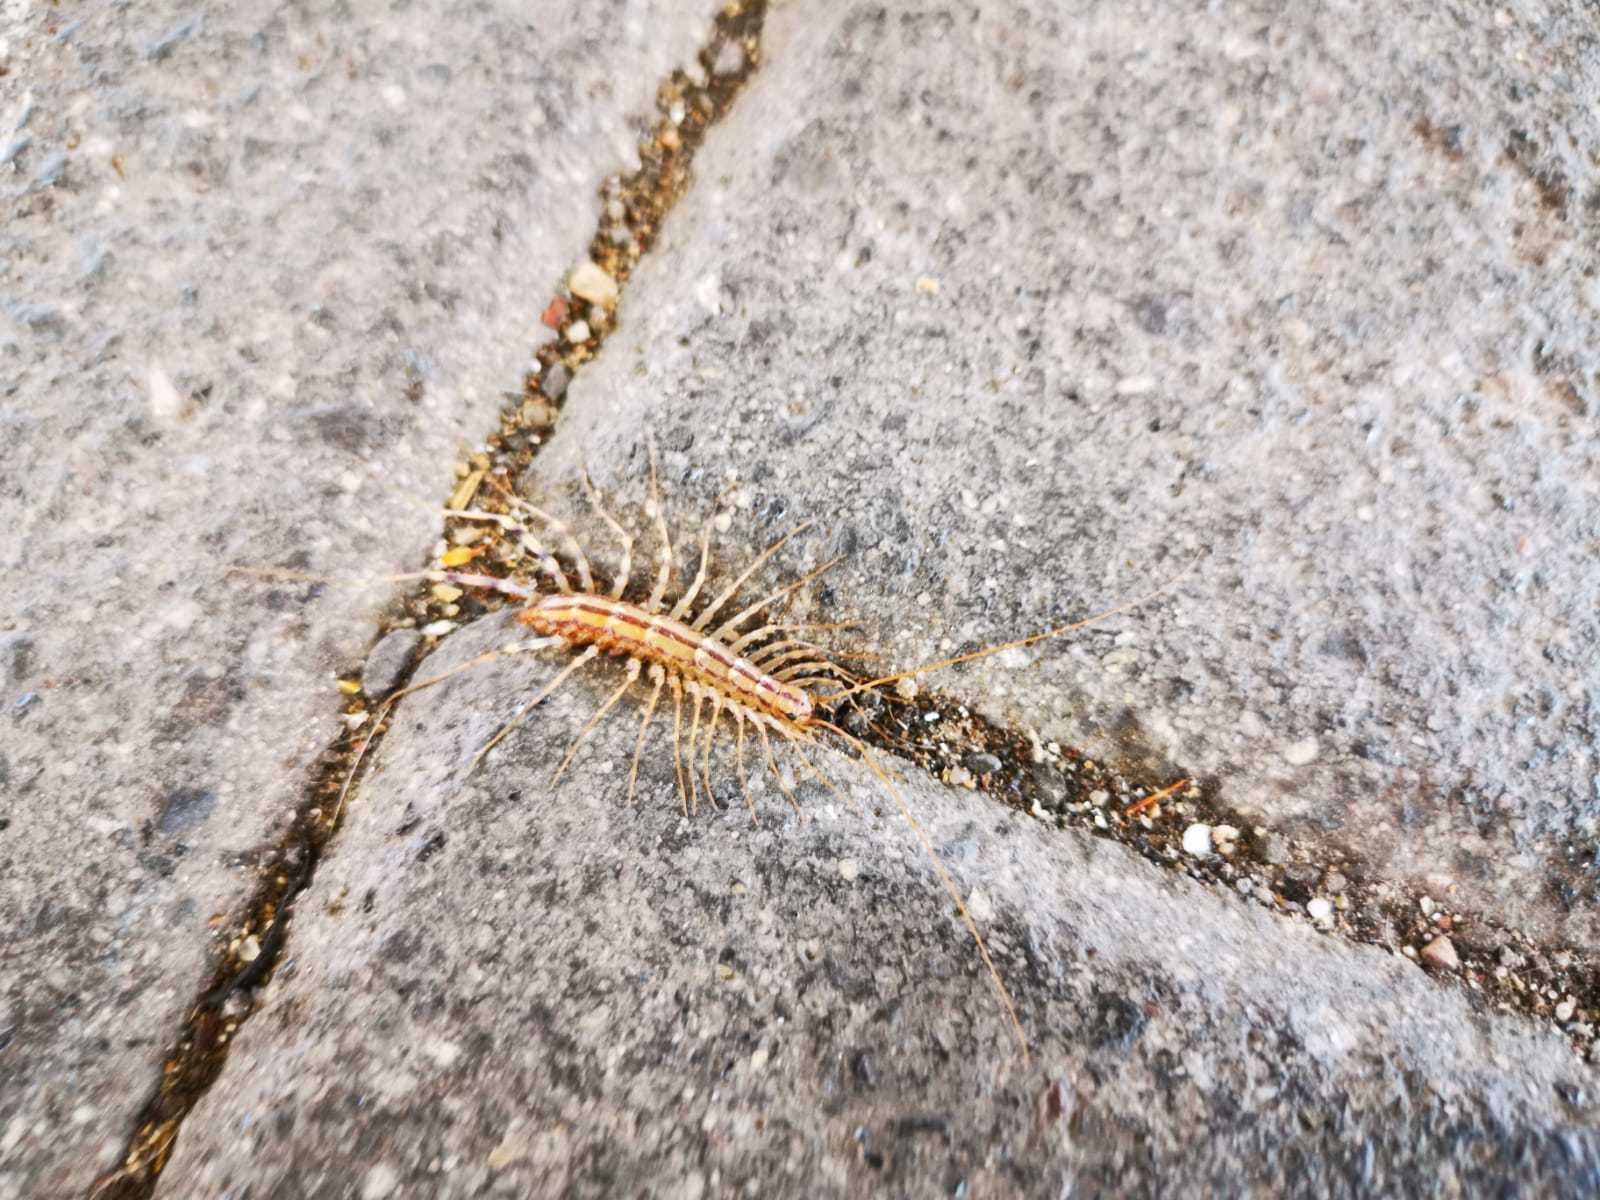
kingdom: Animalia
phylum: Arthropoda
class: Chilopoda
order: Scutigeromorpha
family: Scutigeridae
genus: Scutigera
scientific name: Scutigera coleoptrata
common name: House centipede
